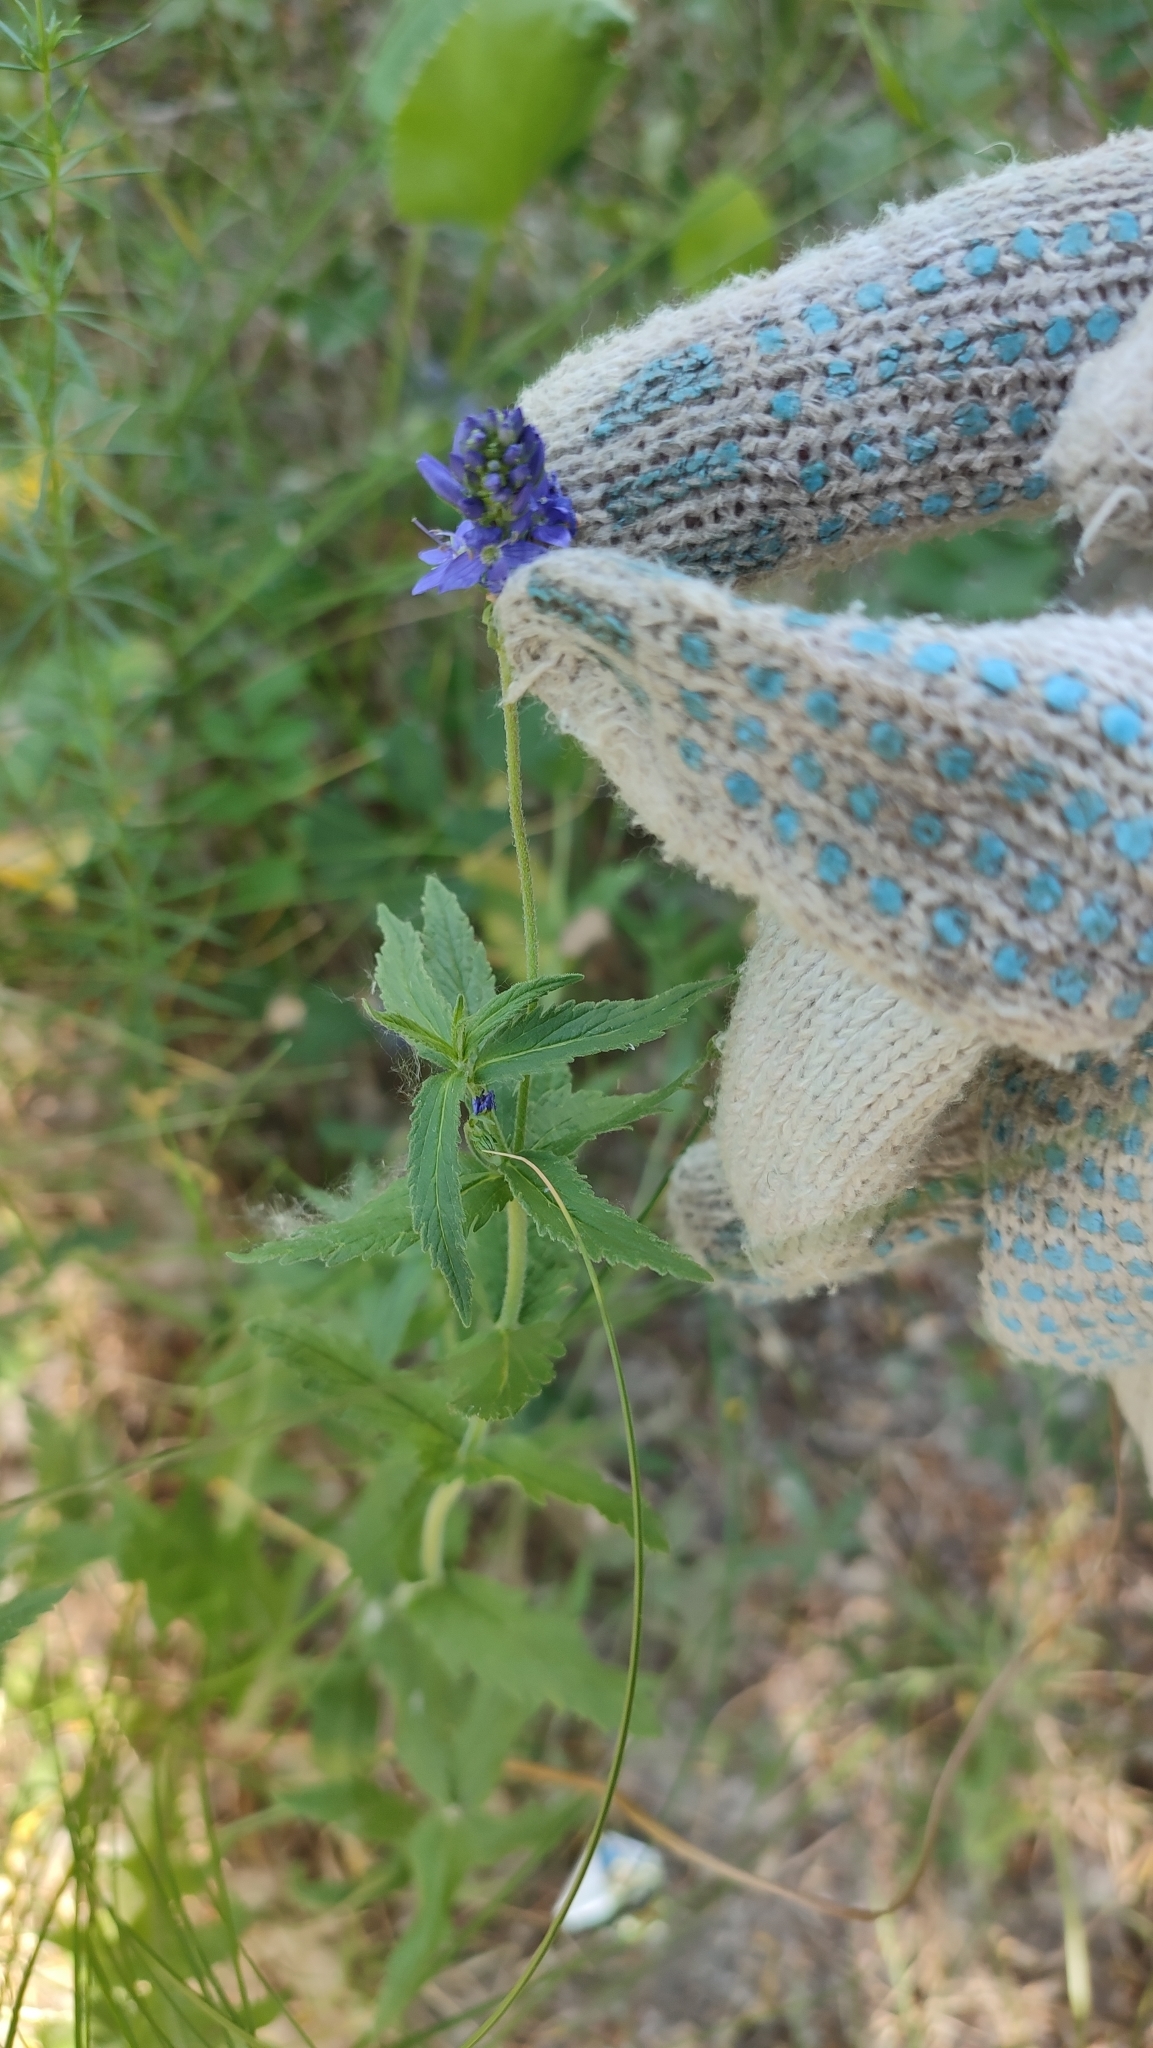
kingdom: Plantae
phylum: Tracheophyta
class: Magnoliopsida
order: Lamiales
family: Plantaginaceae
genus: Veronica
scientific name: Veronica teucrium
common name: Large speedwell
